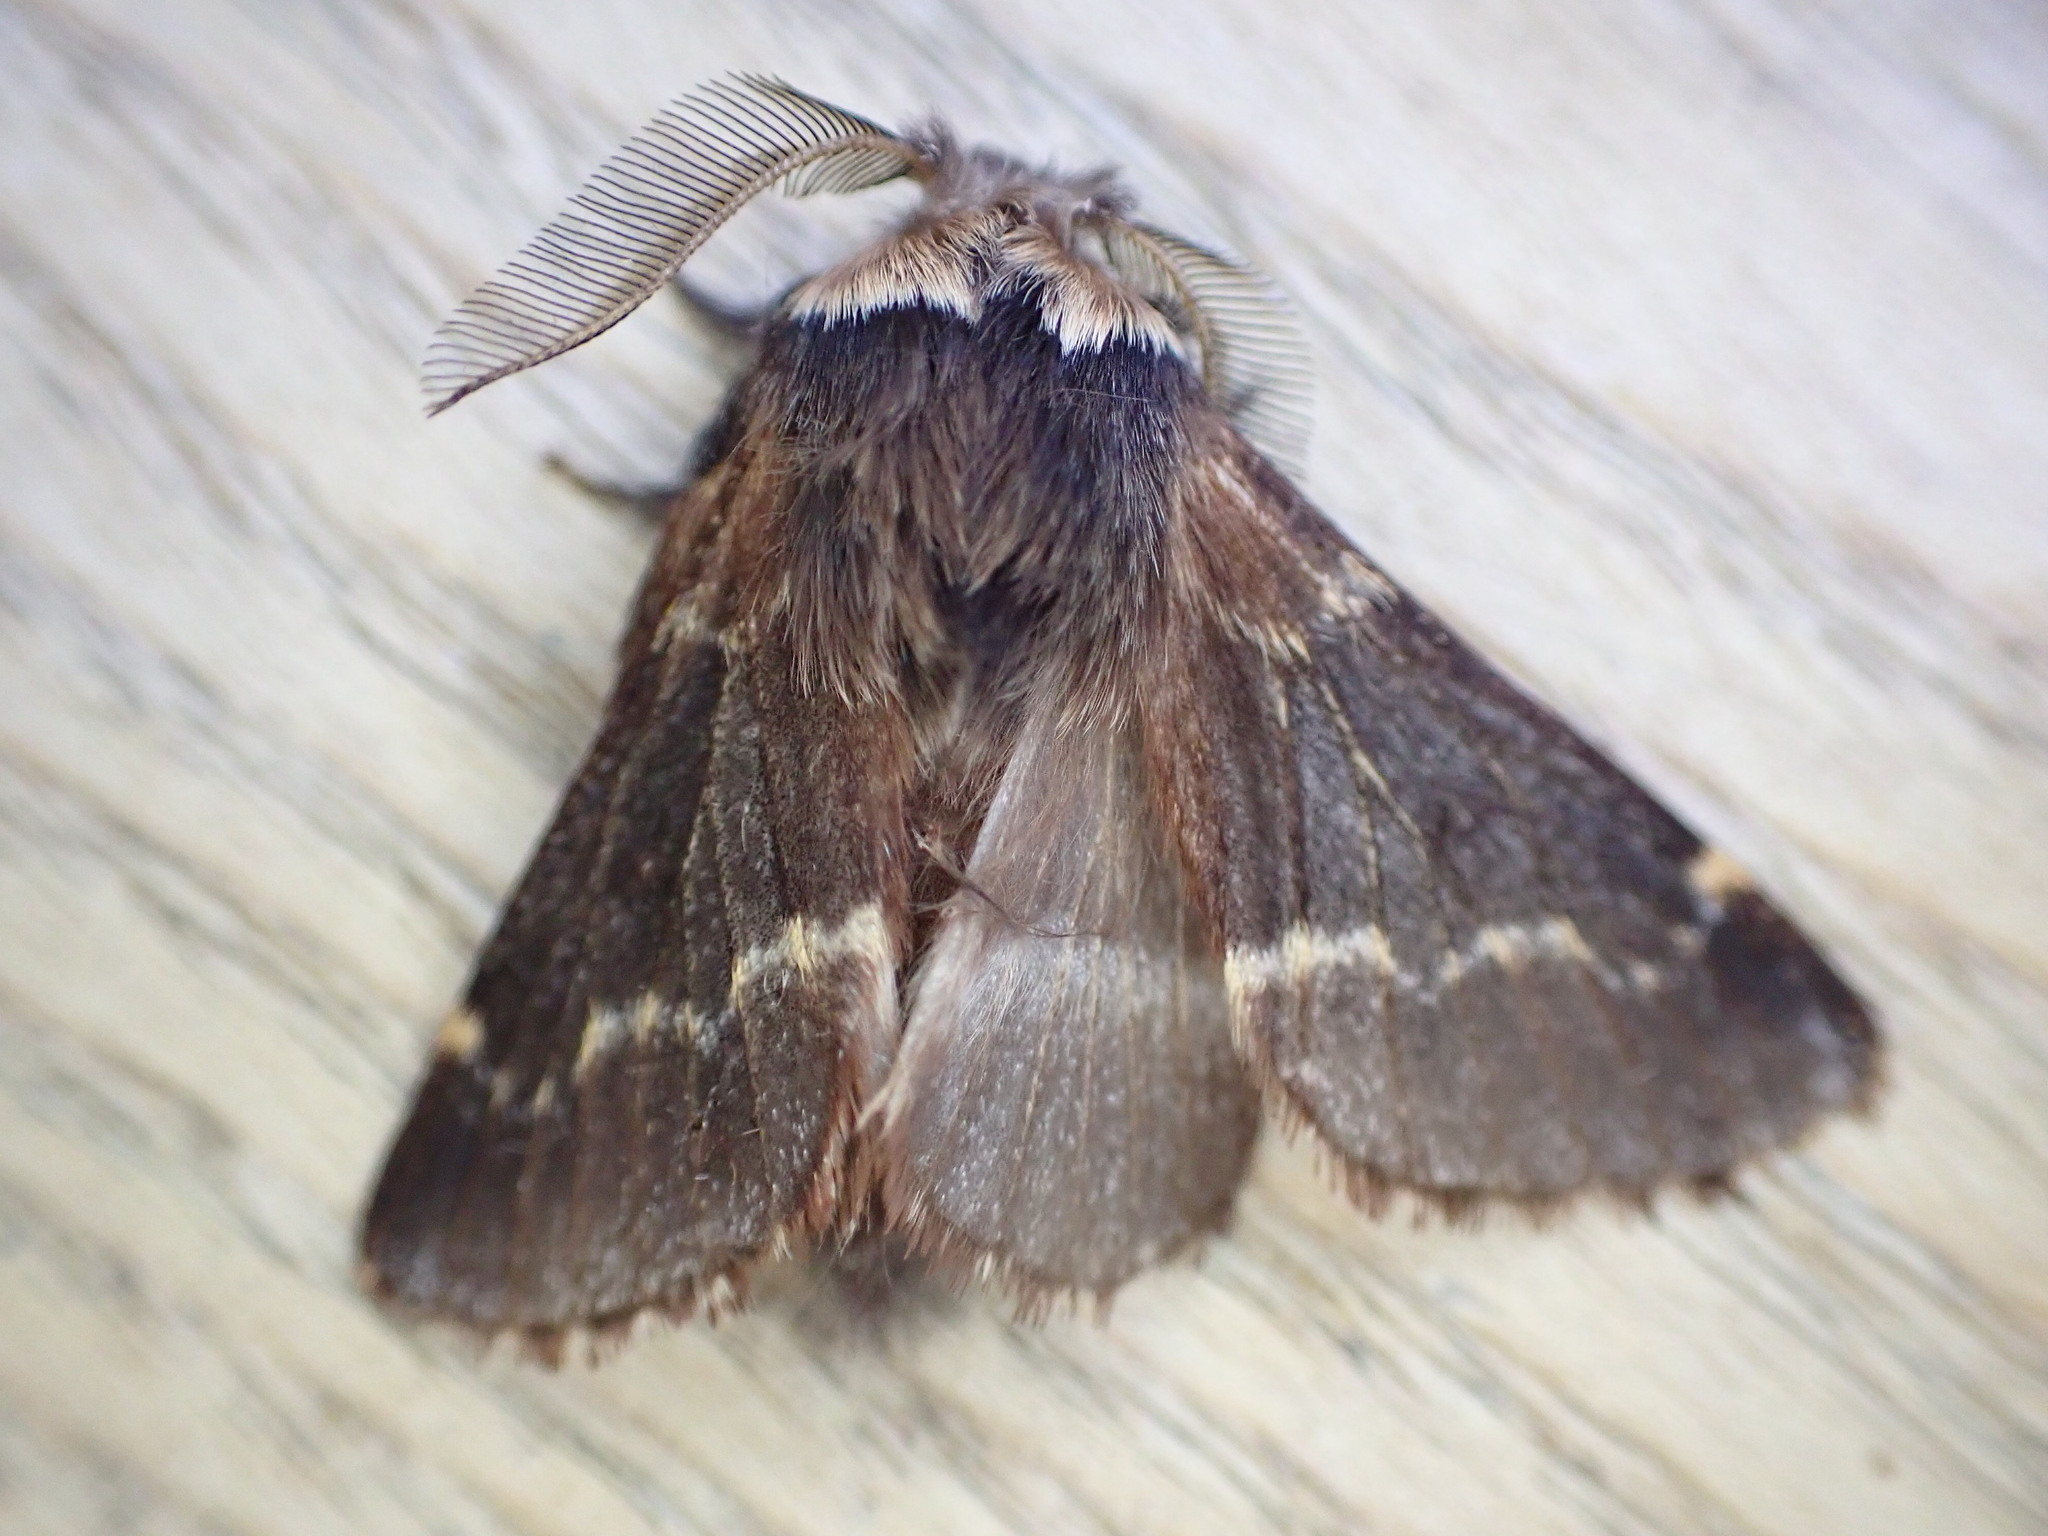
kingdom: Animalia
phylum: Arthropoda
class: Insecta
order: Lepidoptera
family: Lasiocampidae
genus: Poecilocampa
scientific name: Poecilocampa populi
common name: December moth
